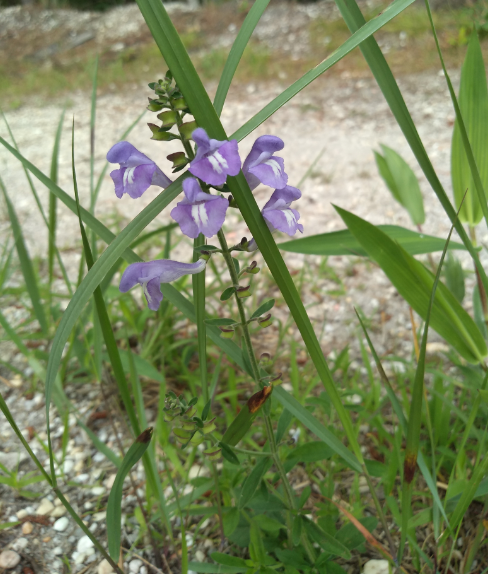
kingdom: Plantae
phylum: Tracheophyta
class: Magnoliopsida
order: Lamiales
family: Lamiaceae
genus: Scutellaria
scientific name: Scutellaria integrifolia
